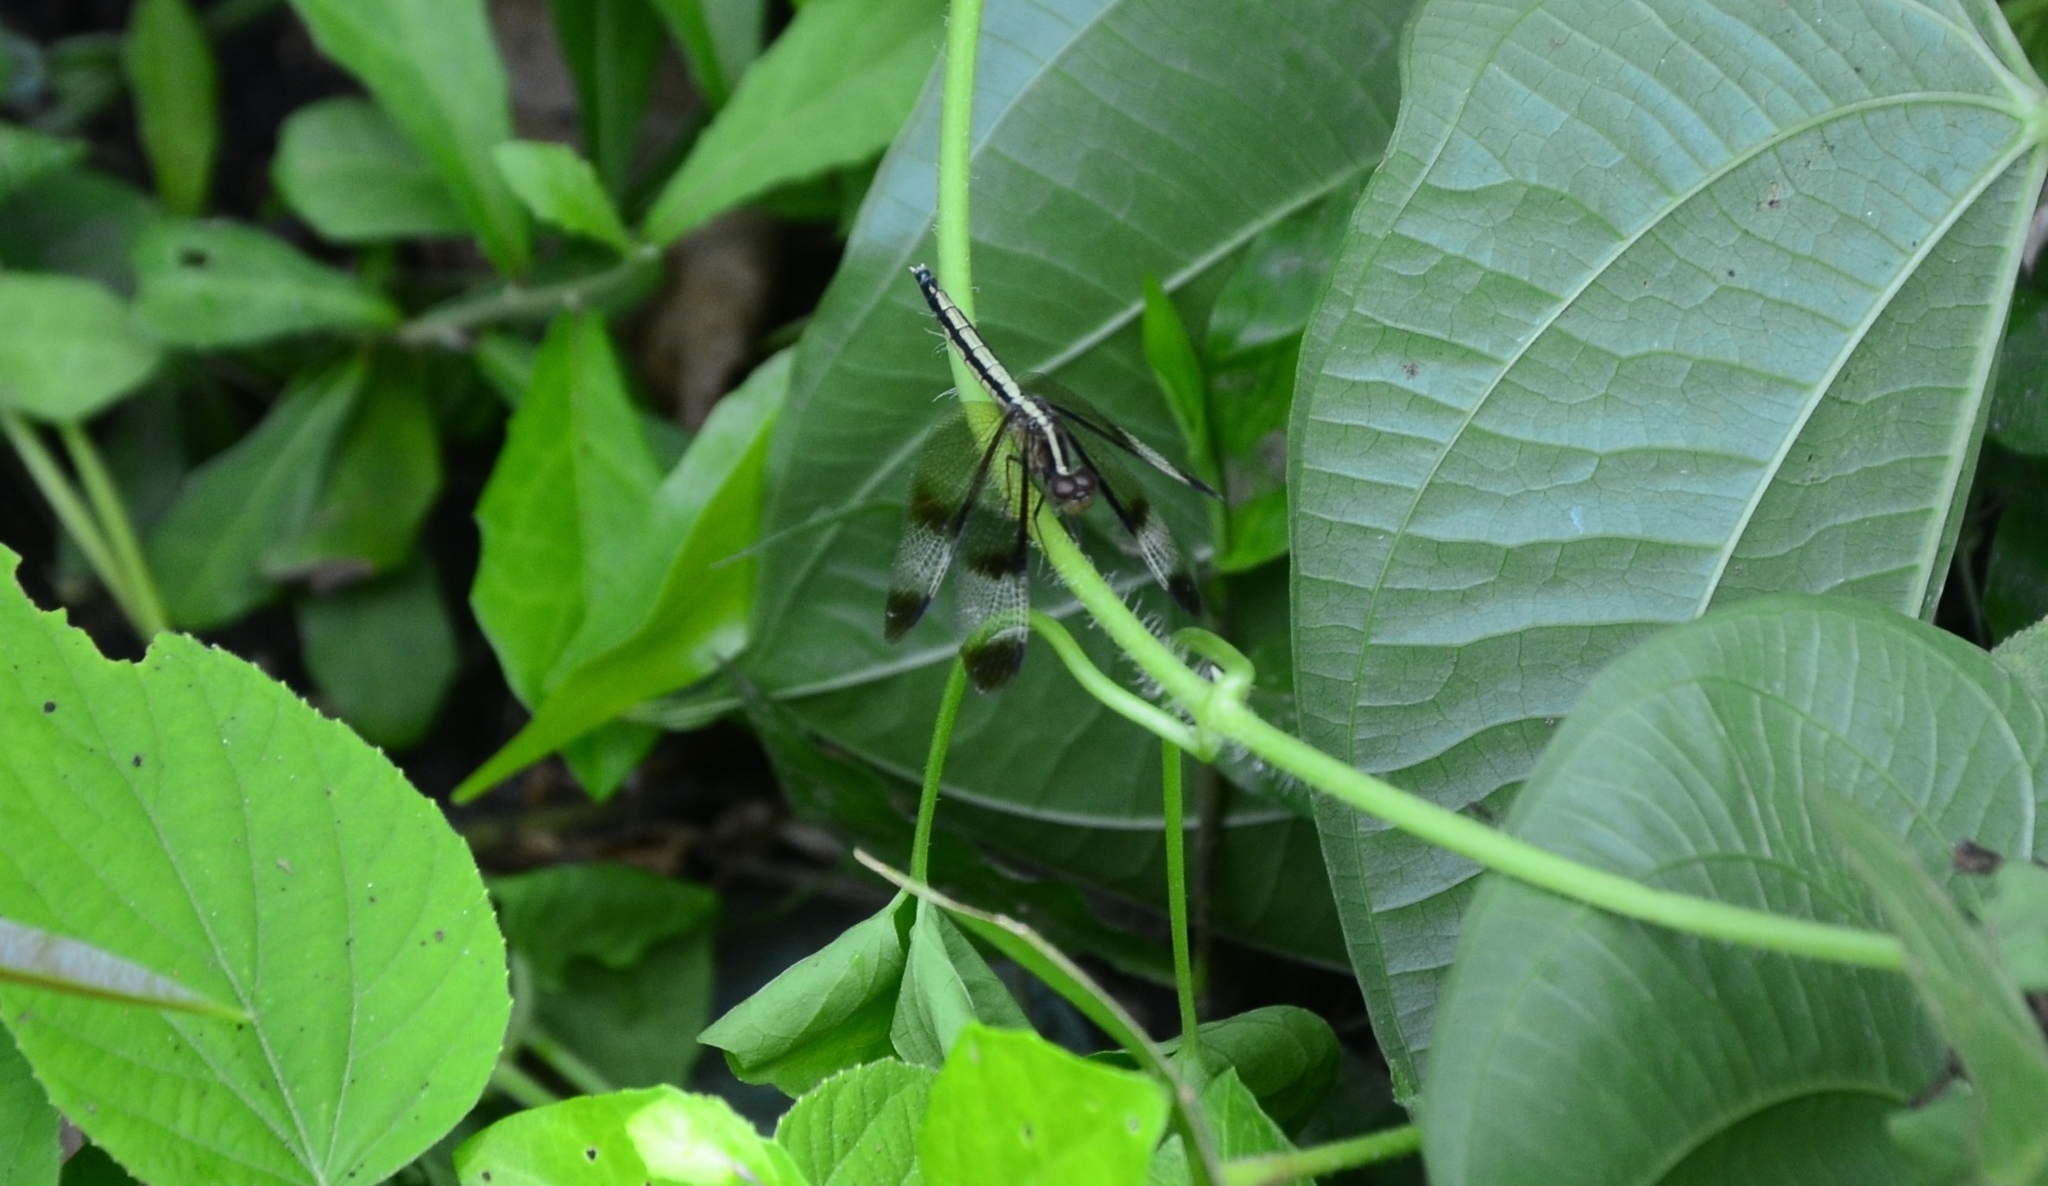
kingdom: Animalia
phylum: Arthropoda
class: Insecta
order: Odonata
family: Libellulidae
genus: Neurothemis
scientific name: Neurothemis tullia
